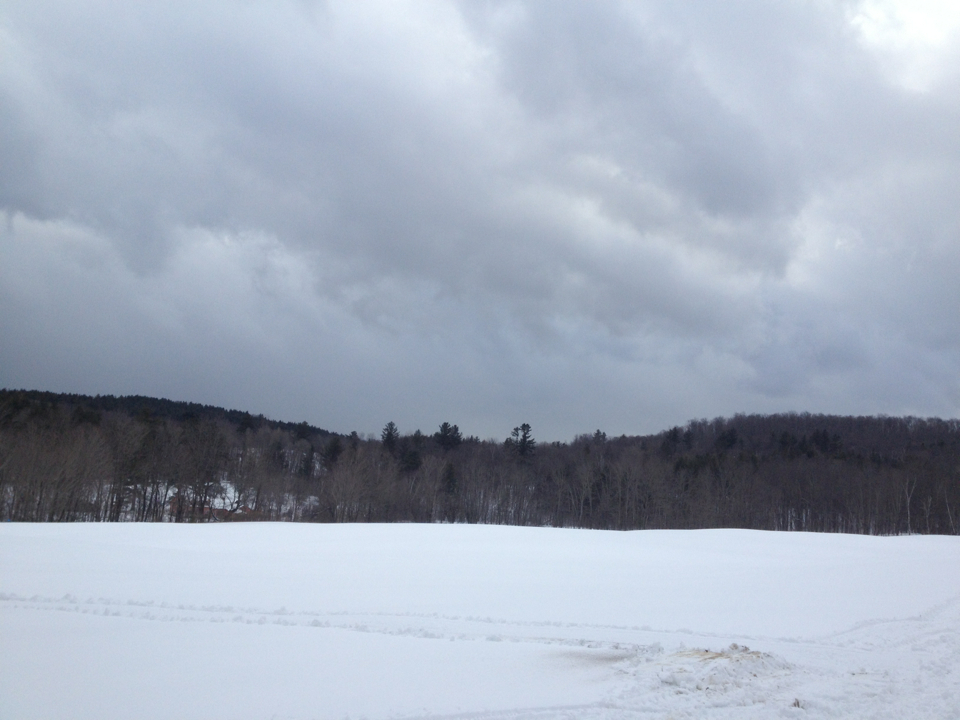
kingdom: Plantae
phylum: Tracheophyta
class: Pinopsida
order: Pinales
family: Pinaceae
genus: Pinus
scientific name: Pinus strobus
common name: Weymouth pine
